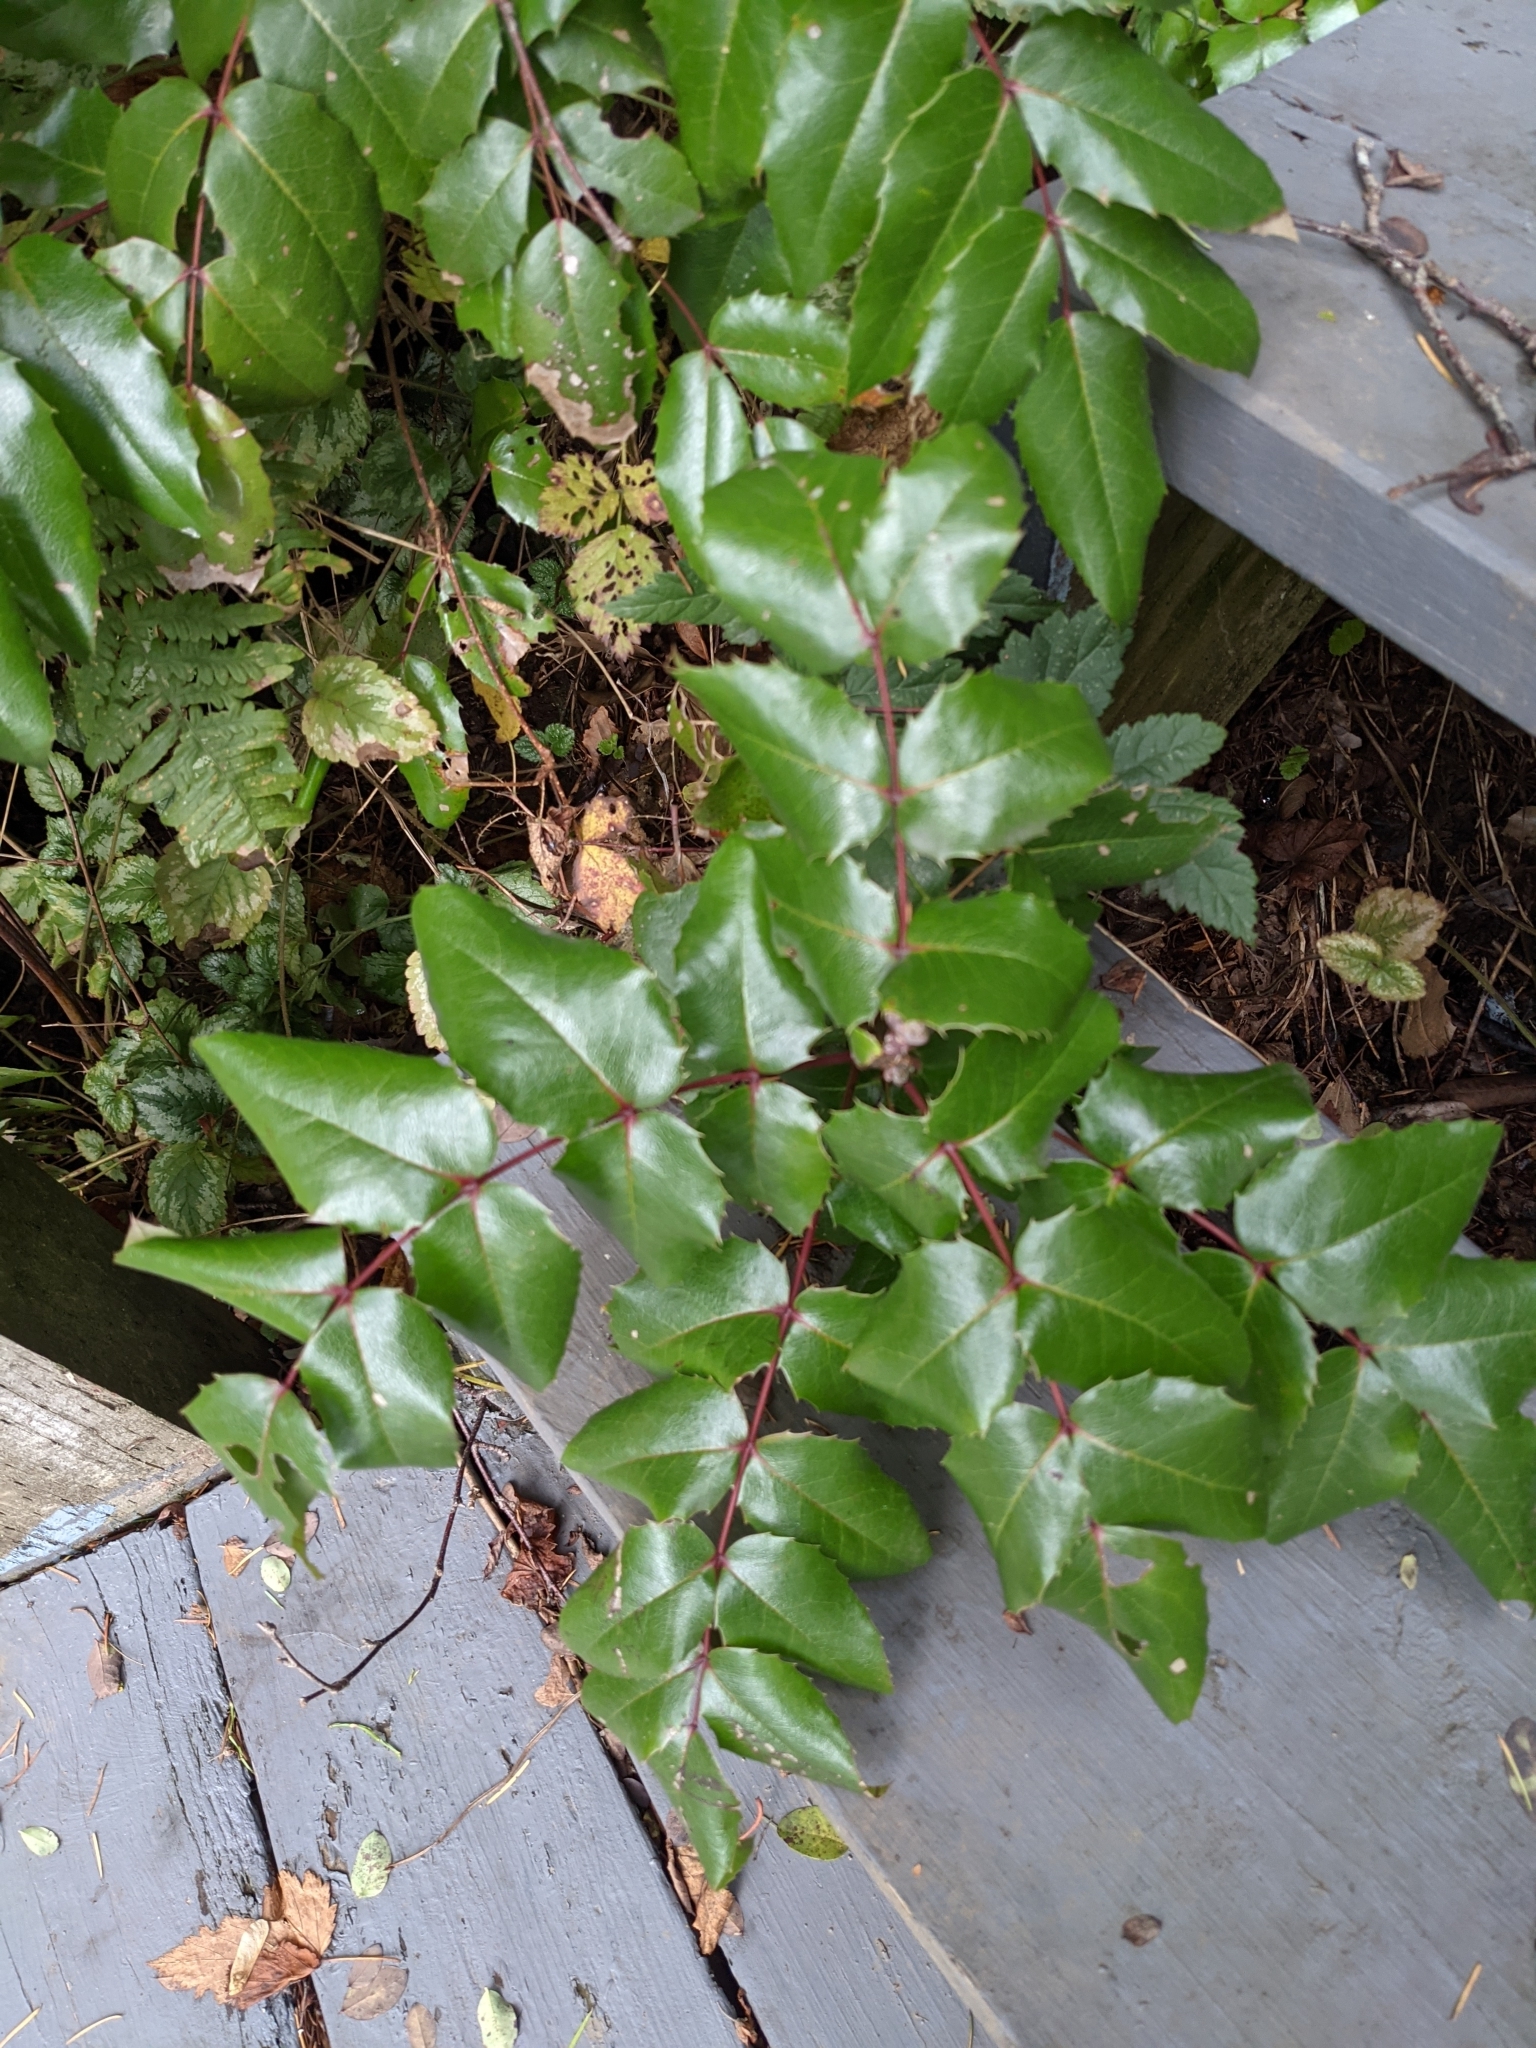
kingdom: Plantae
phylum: Tracheophyta
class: Magnoliopsida
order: Ranunculales
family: Berberidaceae
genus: Mahonia
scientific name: Mahonia aquifolium
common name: Oregon-grape
